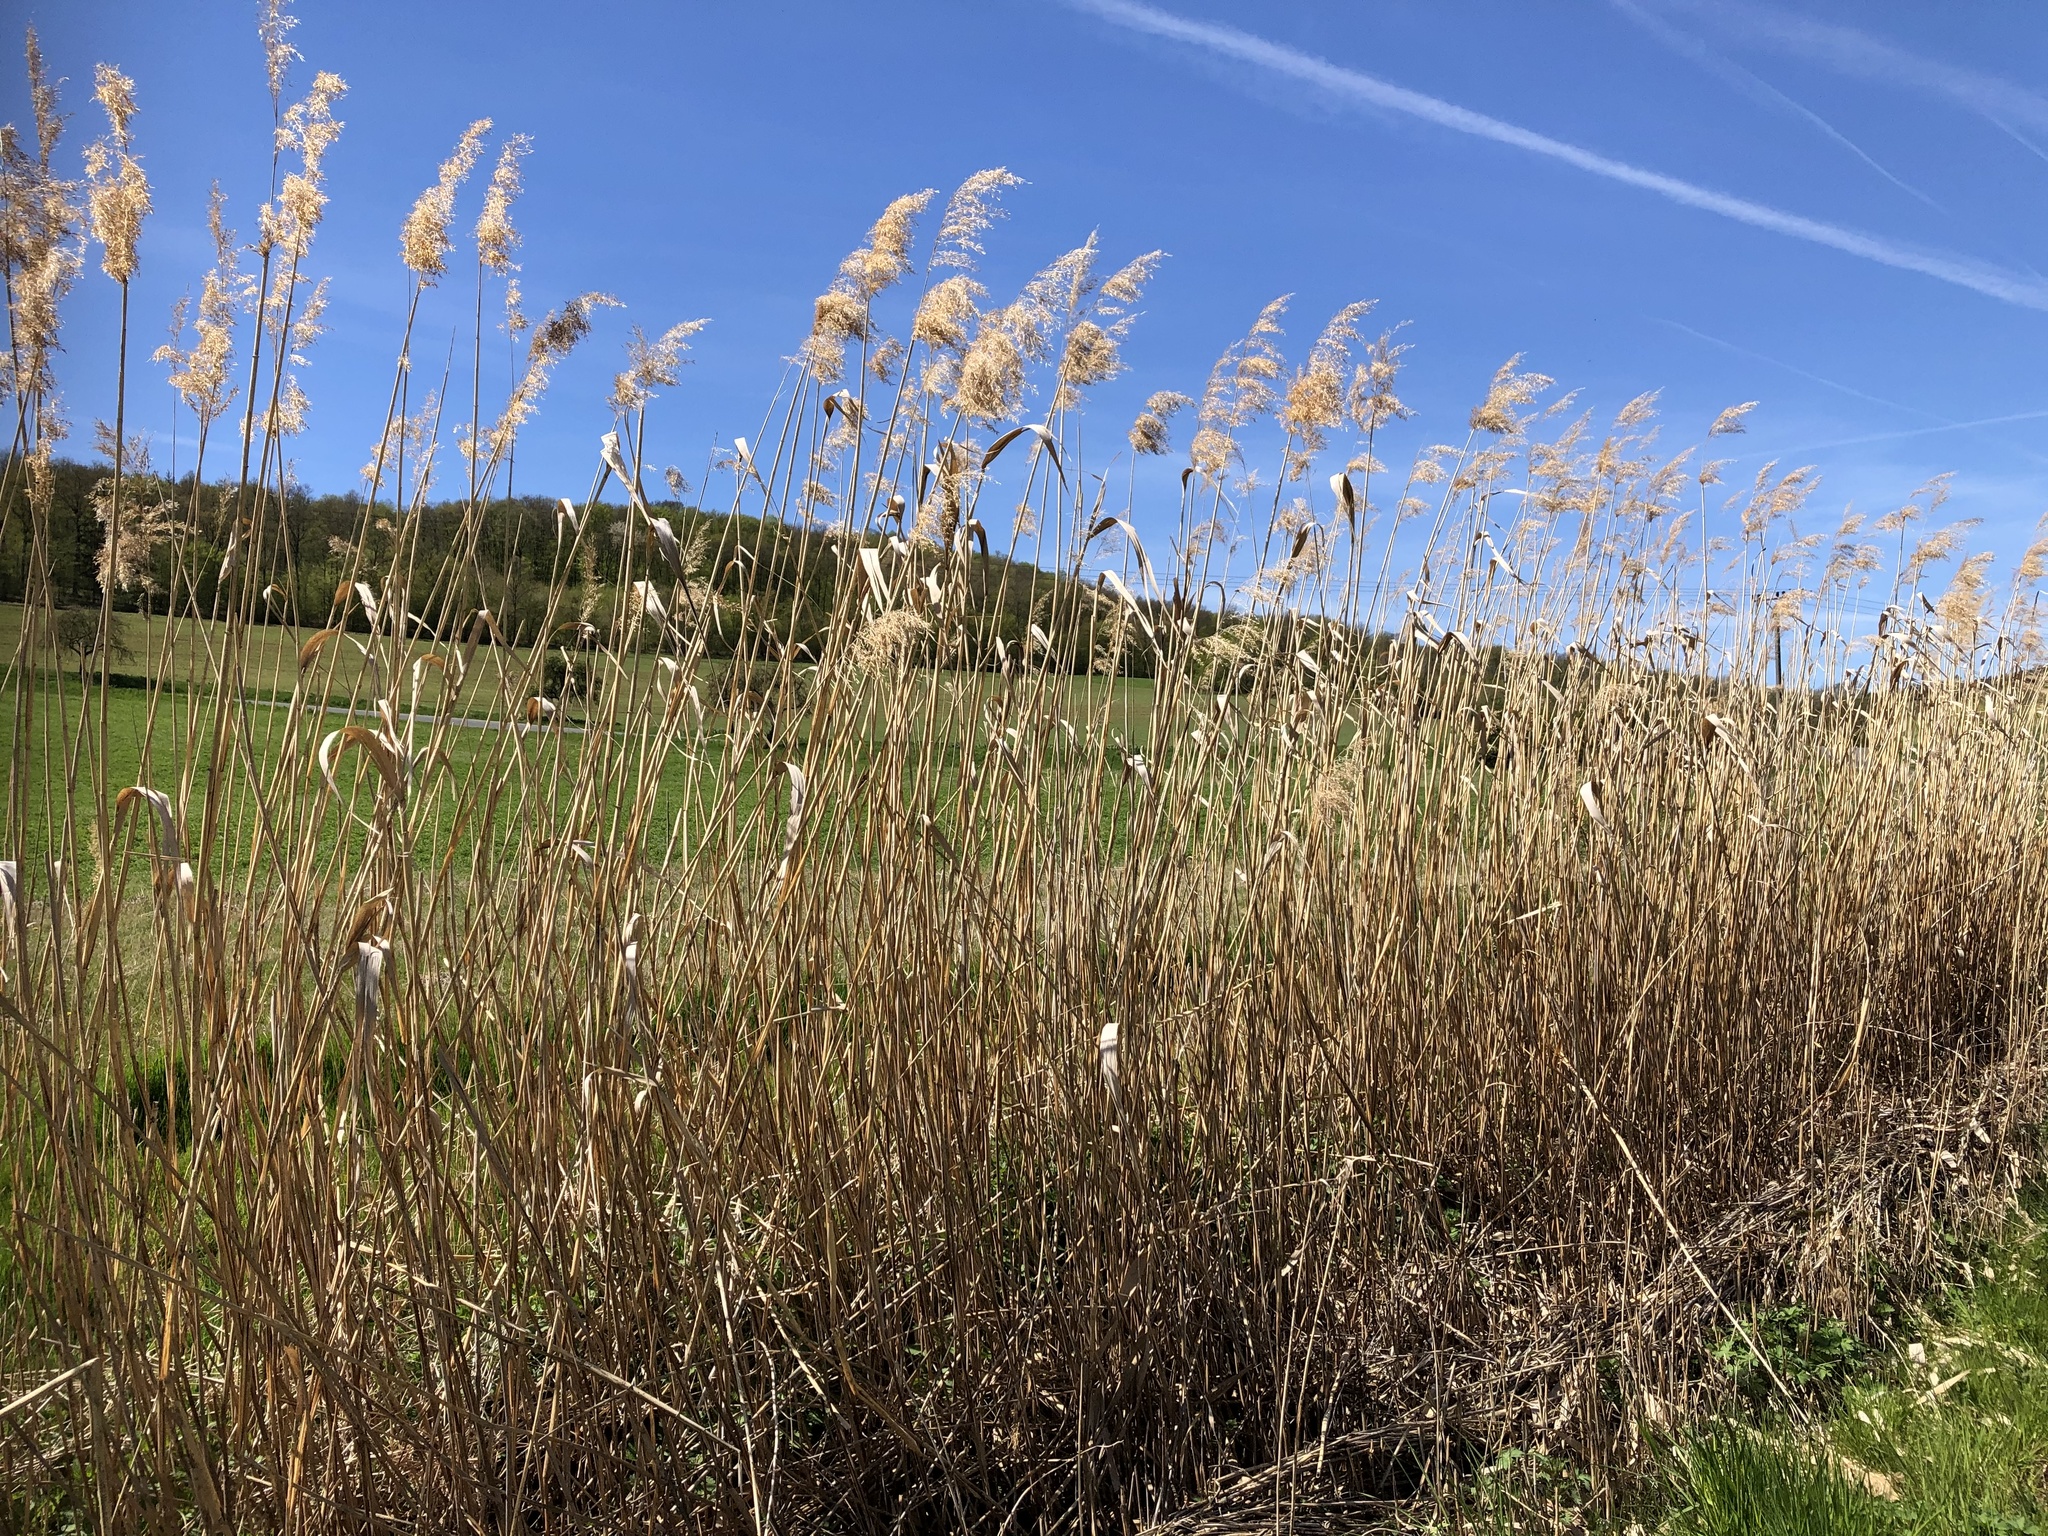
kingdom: Plantae
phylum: Tracheophyta
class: Liliopsida
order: Poales
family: Poaceae
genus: Phragmites
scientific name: Phragmites australis
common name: Common reed
